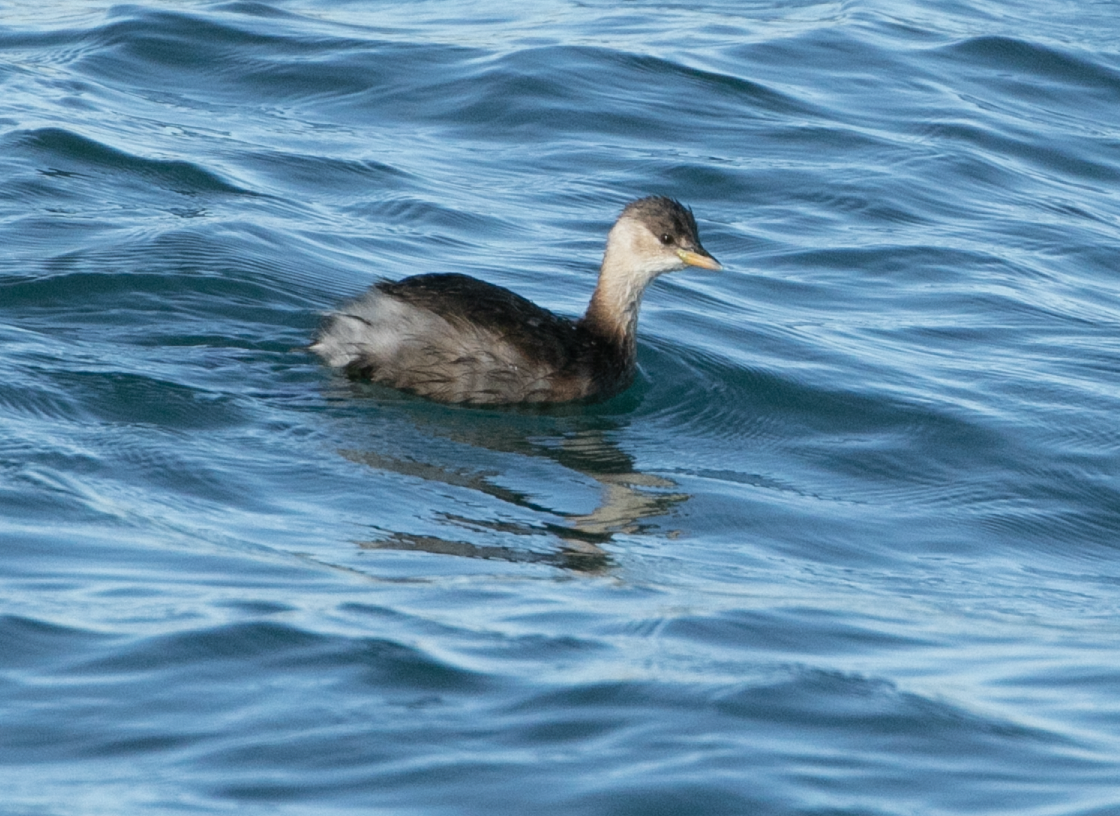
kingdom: Animalia
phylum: Chordata
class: Aves
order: Podicipediformes
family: Podicipedidae
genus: Tachybaptus
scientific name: Tachybaptus ruficollis
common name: Little grebe
